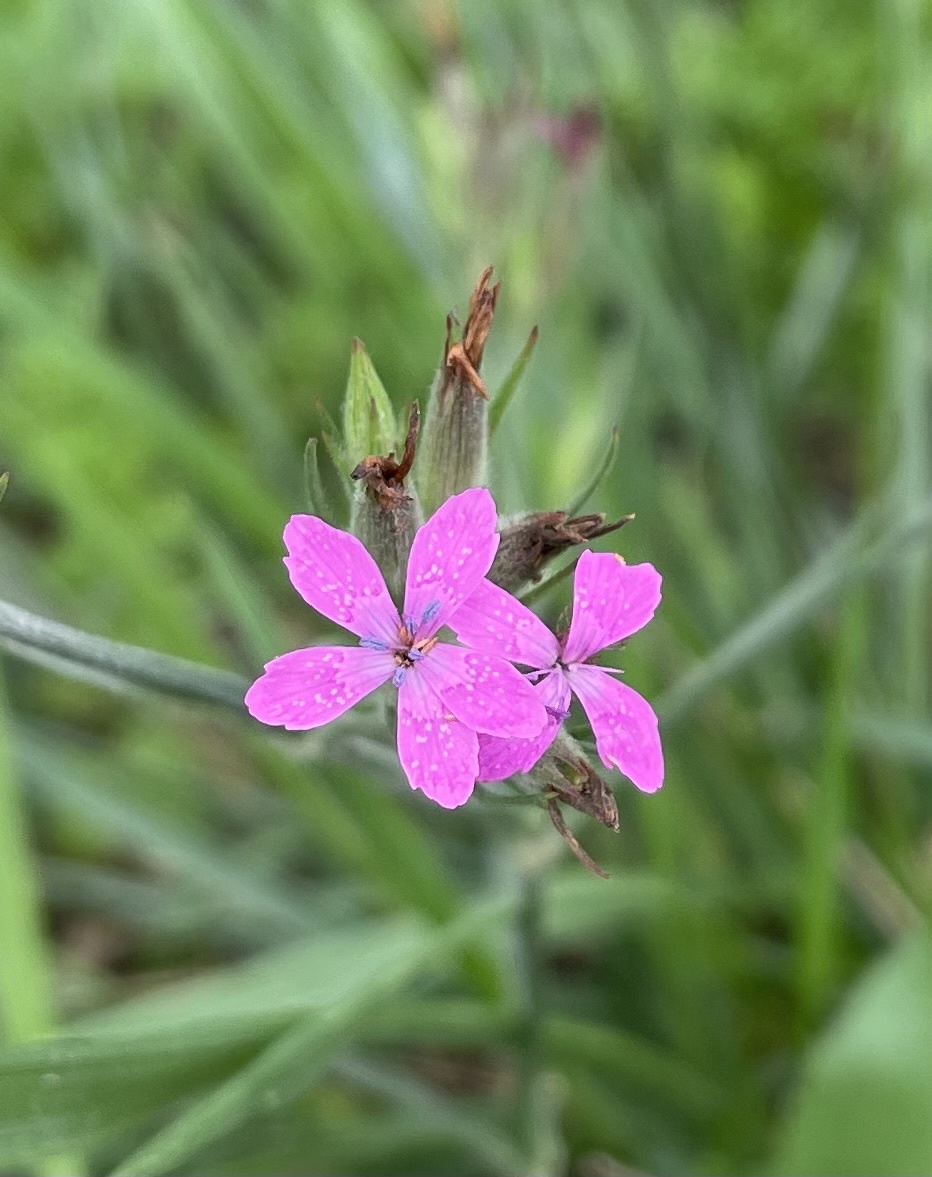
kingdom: Plantae
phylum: Tracheophyta
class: Magnoliopsida
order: Caryophyllales
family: Caryophyllaceae
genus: Dianthus
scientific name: Dianthus armeria
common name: Deptford pink
